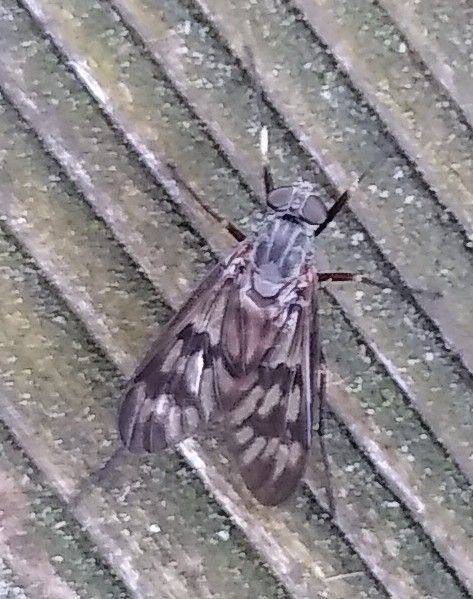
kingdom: Animalia
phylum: Arthropoda
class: Insecta
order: Diptera
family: Rhagionidae
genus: Rhagio
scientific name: Rhagio mystaceus
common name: Common snipe fly
